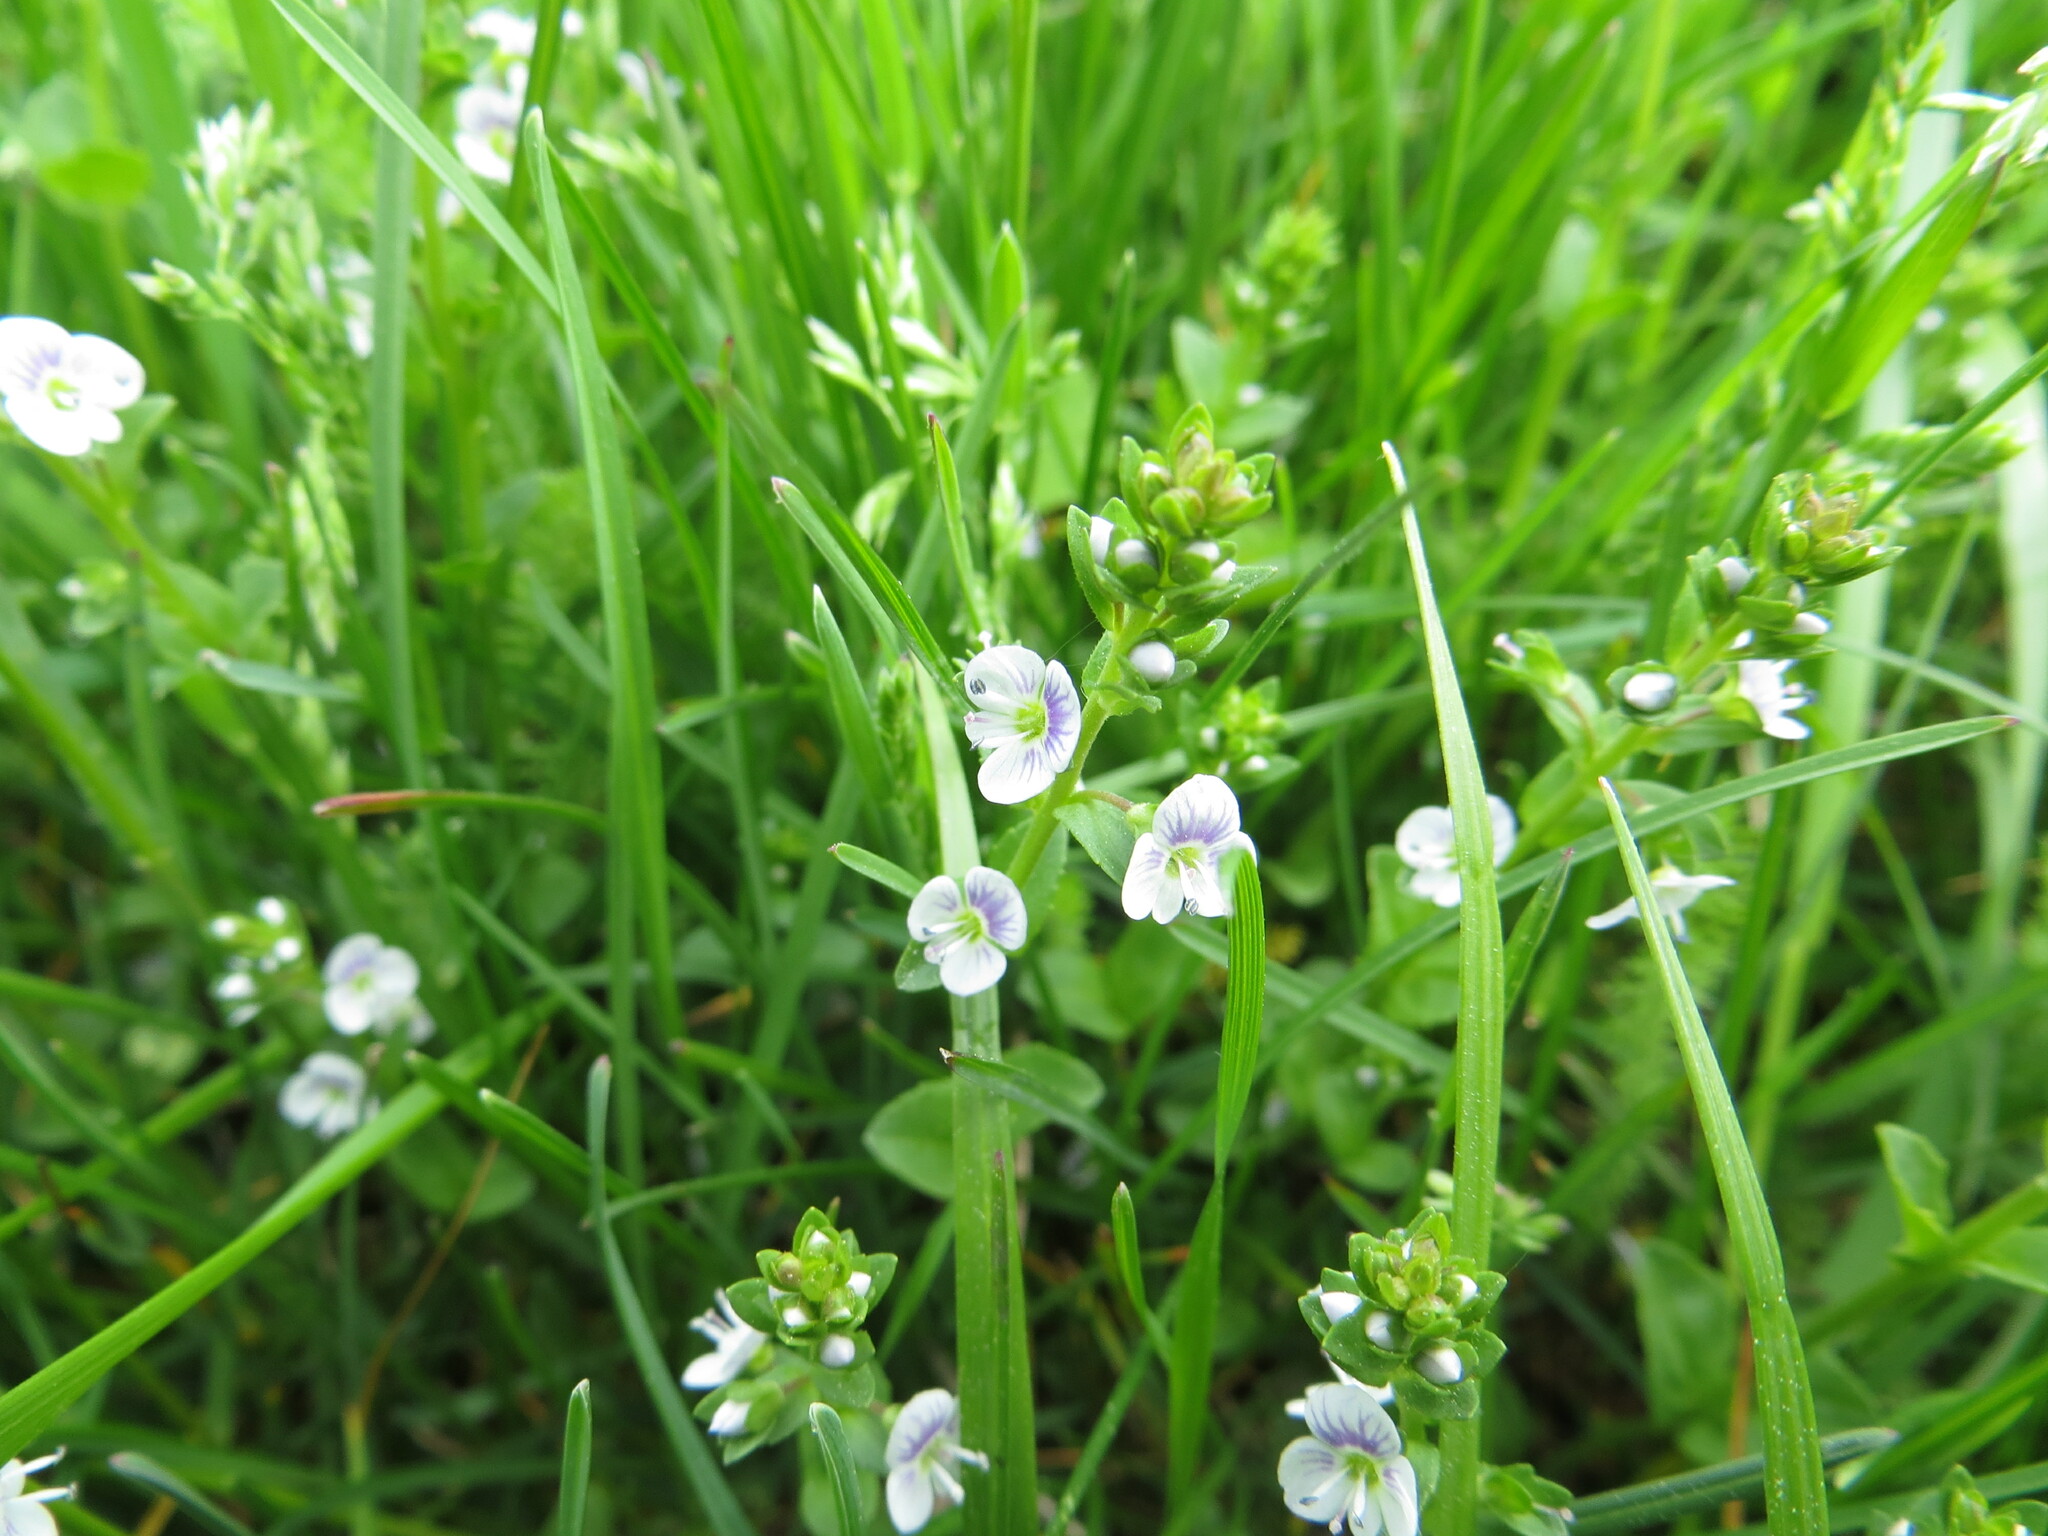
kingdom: Plantae
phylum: Tracheophyta
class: Magnoliopsida
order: Lamiales
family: Plantaginaceae
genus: Veronica
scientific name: Veronica serpyllifolia
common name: Thyme-leaved speedwell
